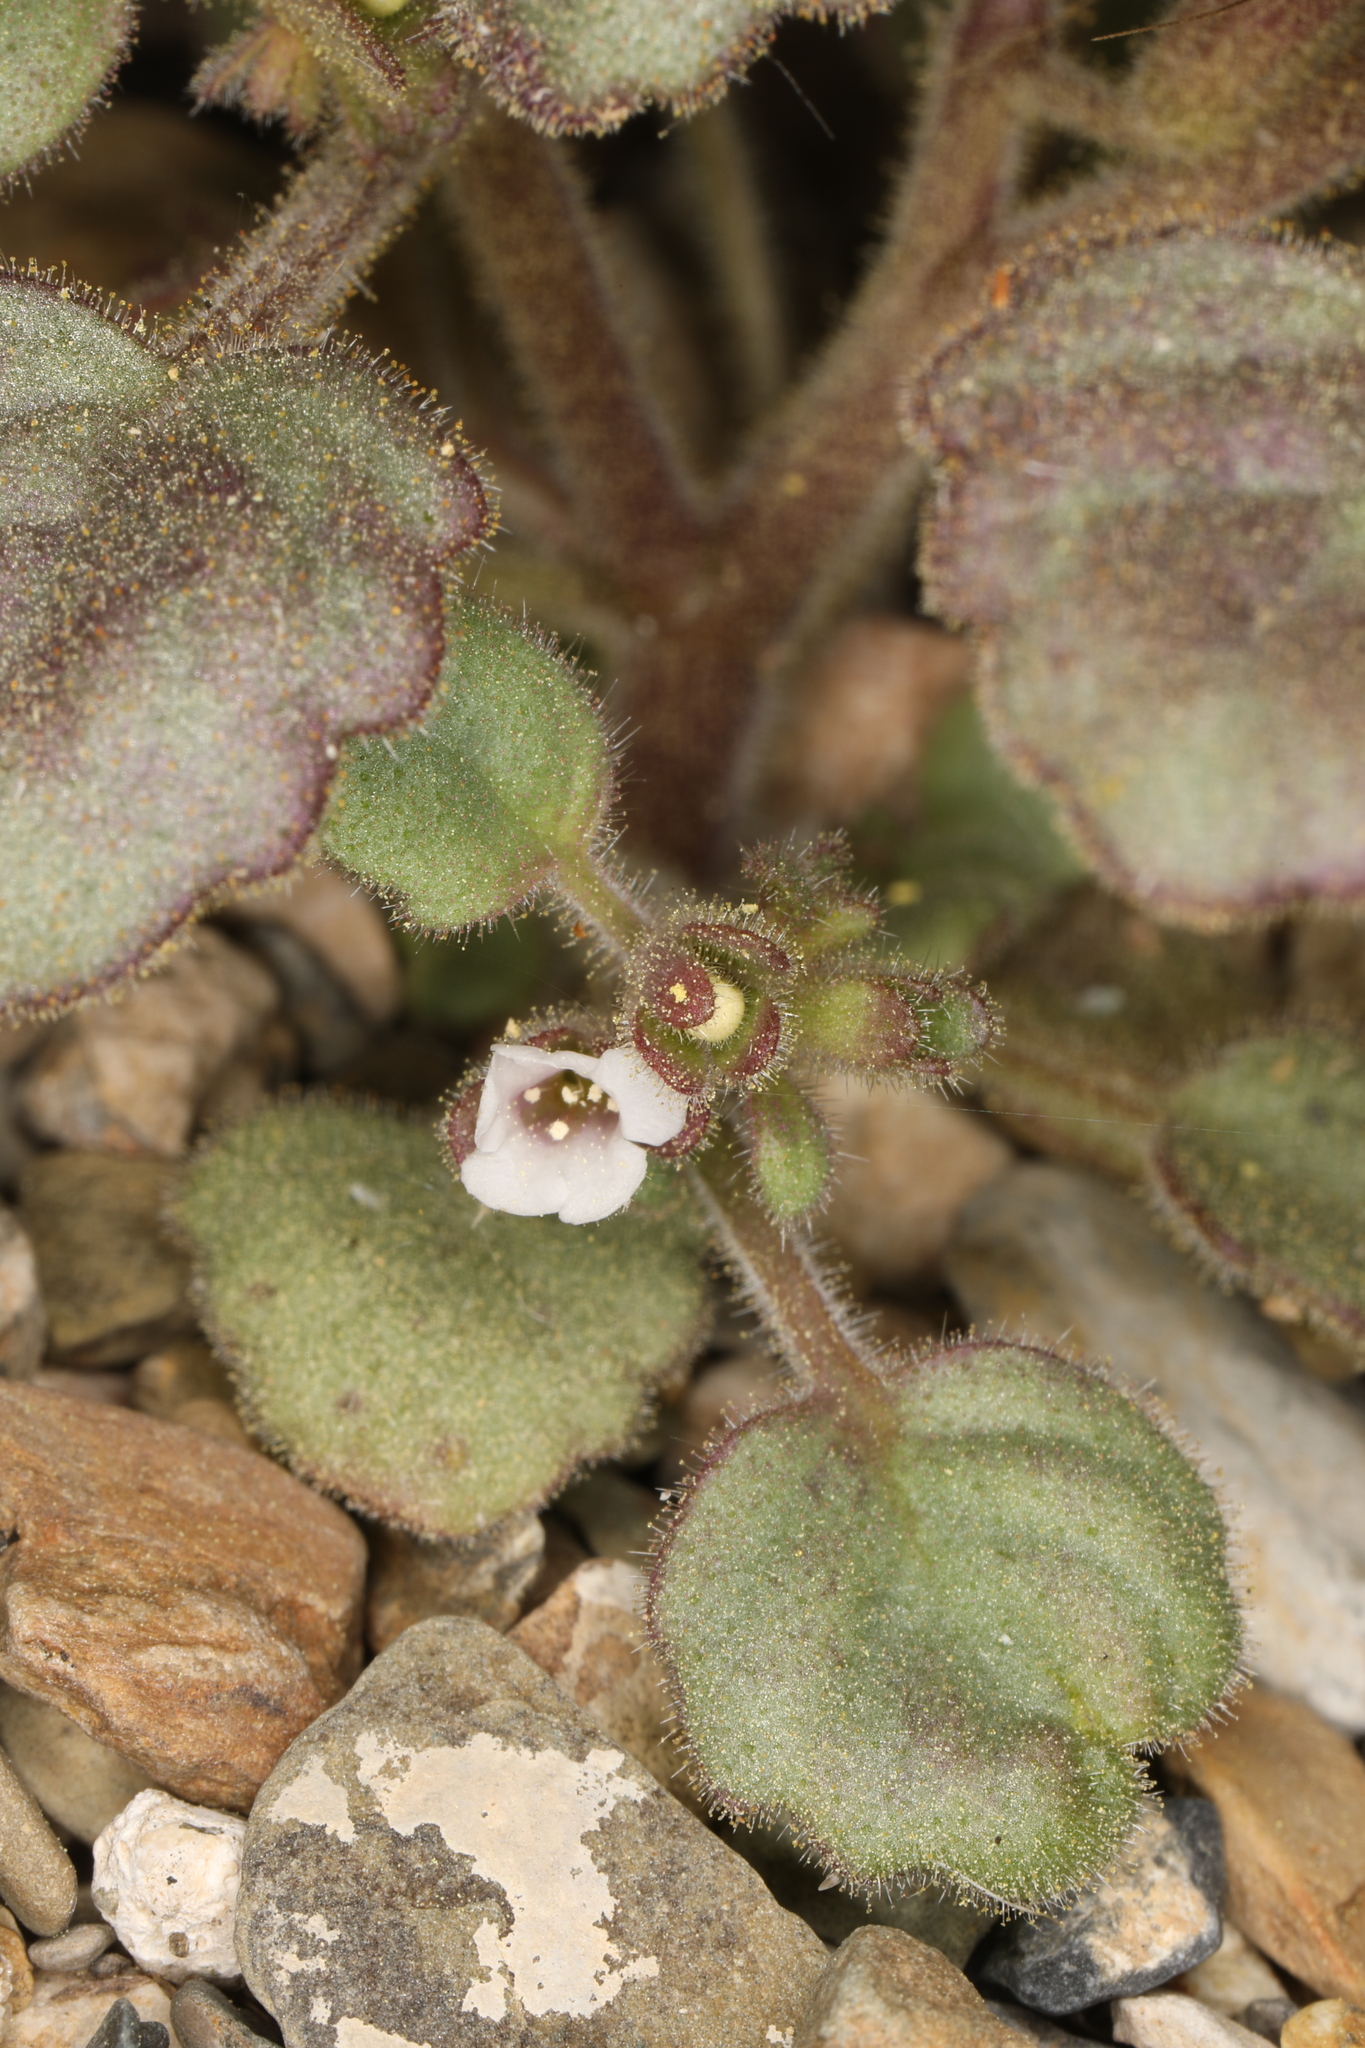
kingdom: Plantae
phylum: Tracheophyta
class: Magnoliopsida
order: Boraginales
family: Hydrophyllaceae
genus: Phacelia
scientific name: Phacelia peirsoniana
